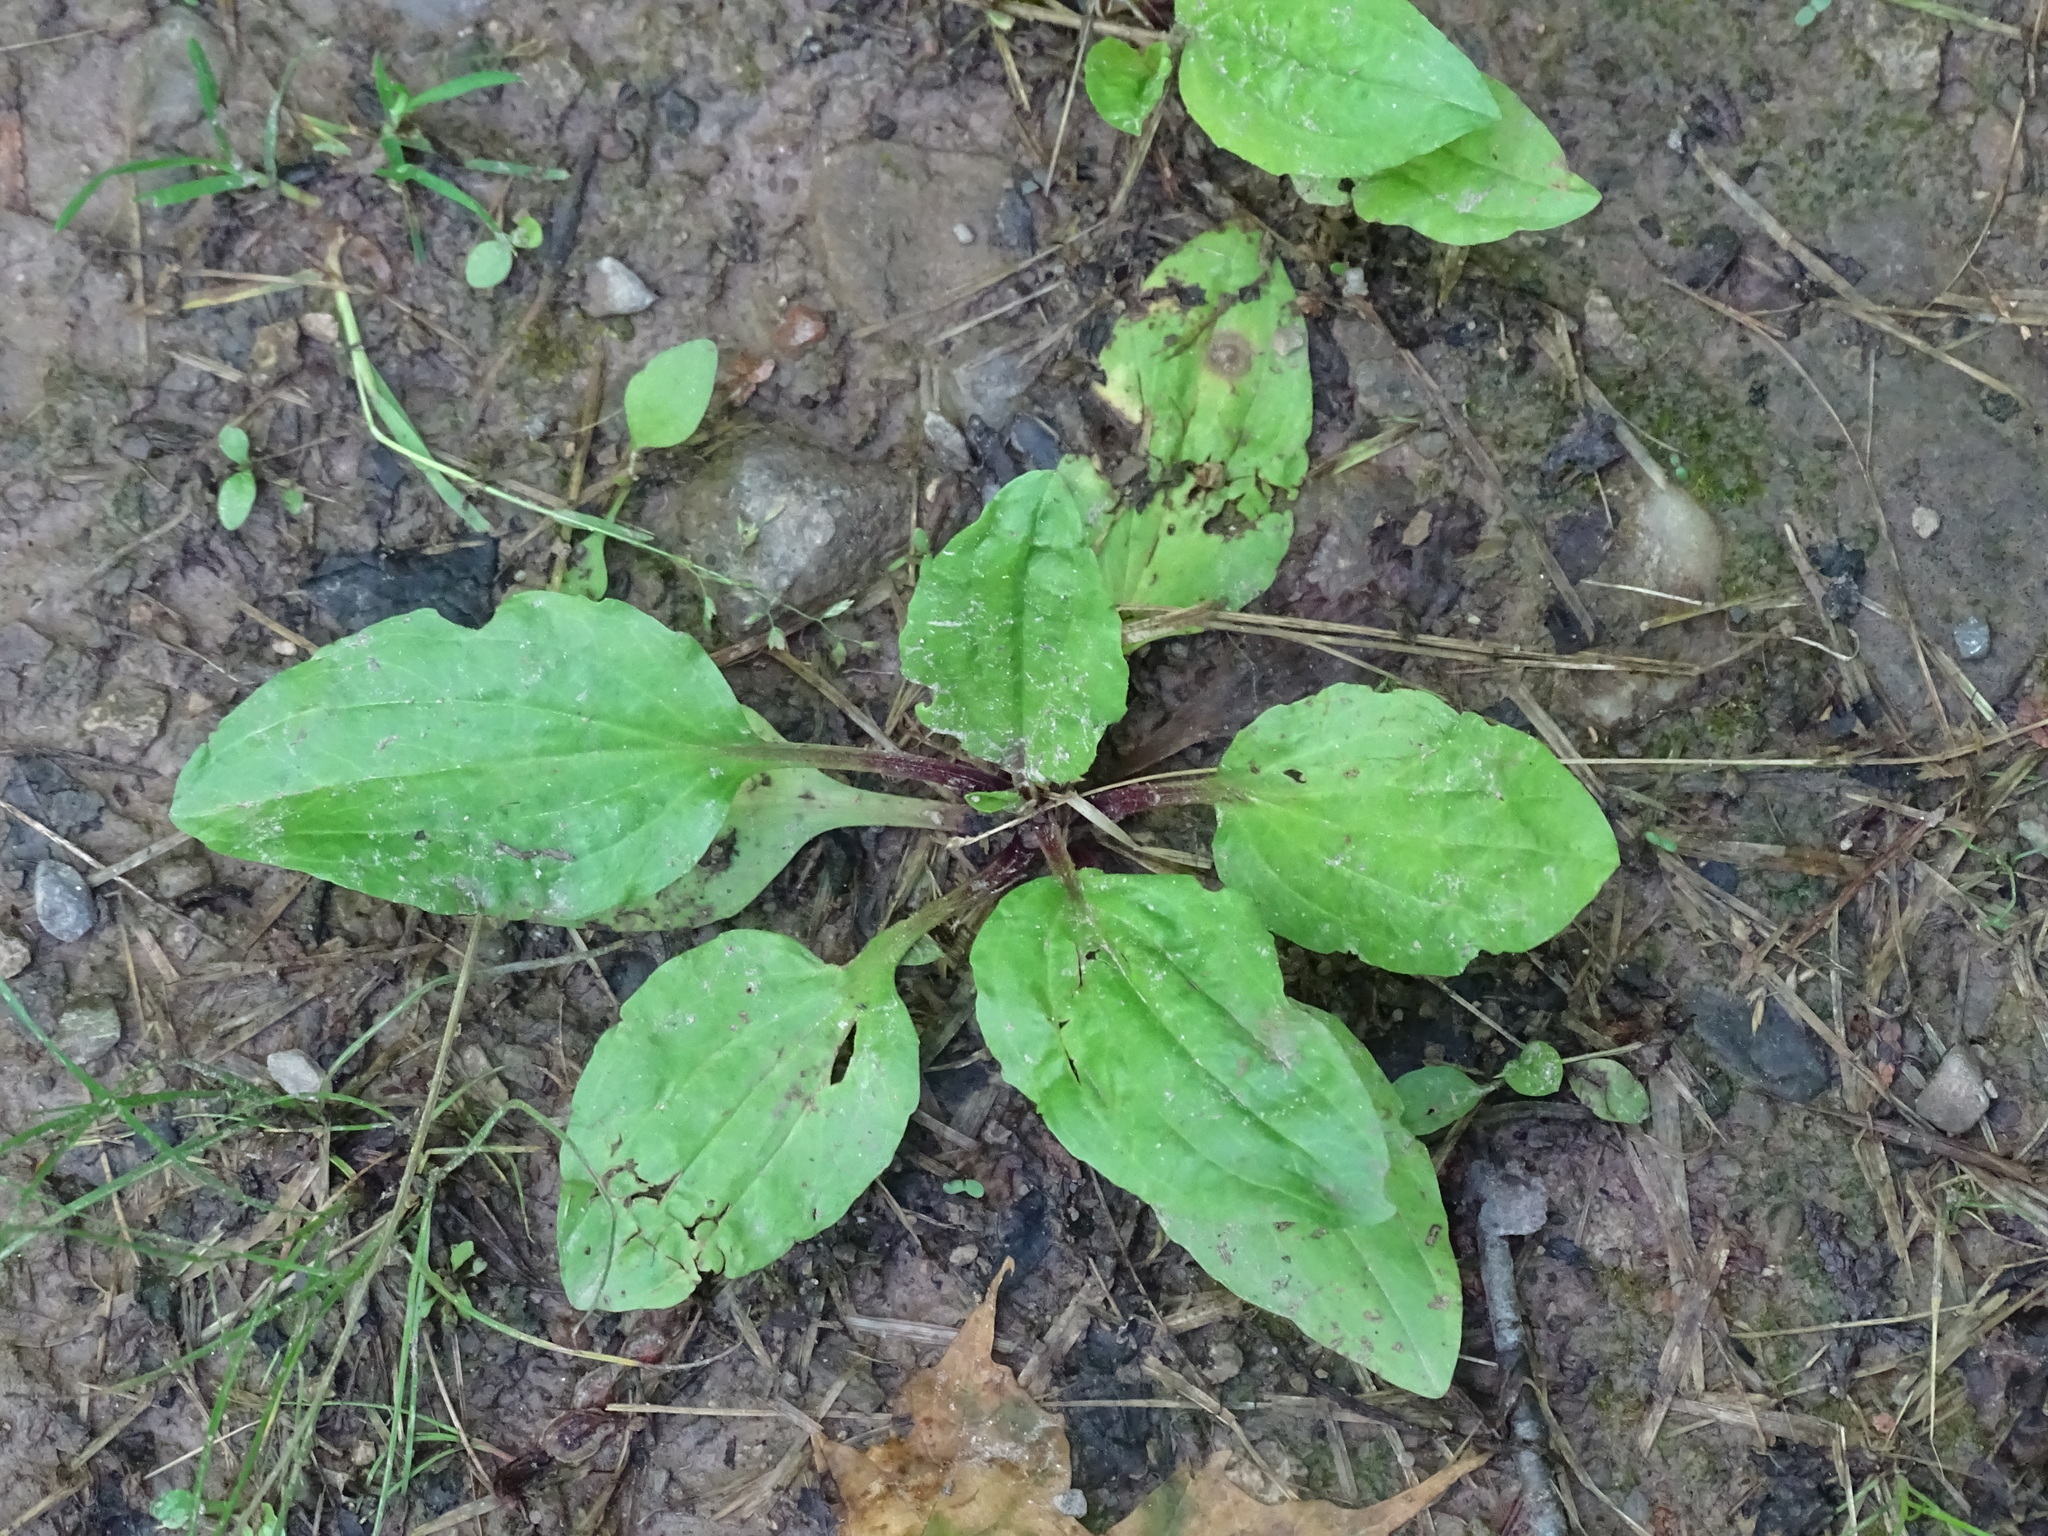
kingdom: Plantae
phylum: Tracheophyta
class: Magnoliopsida
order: Lamiales
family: Plantaginaceae
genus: Plantago
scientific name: Plantago rugelii
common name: American plantain
